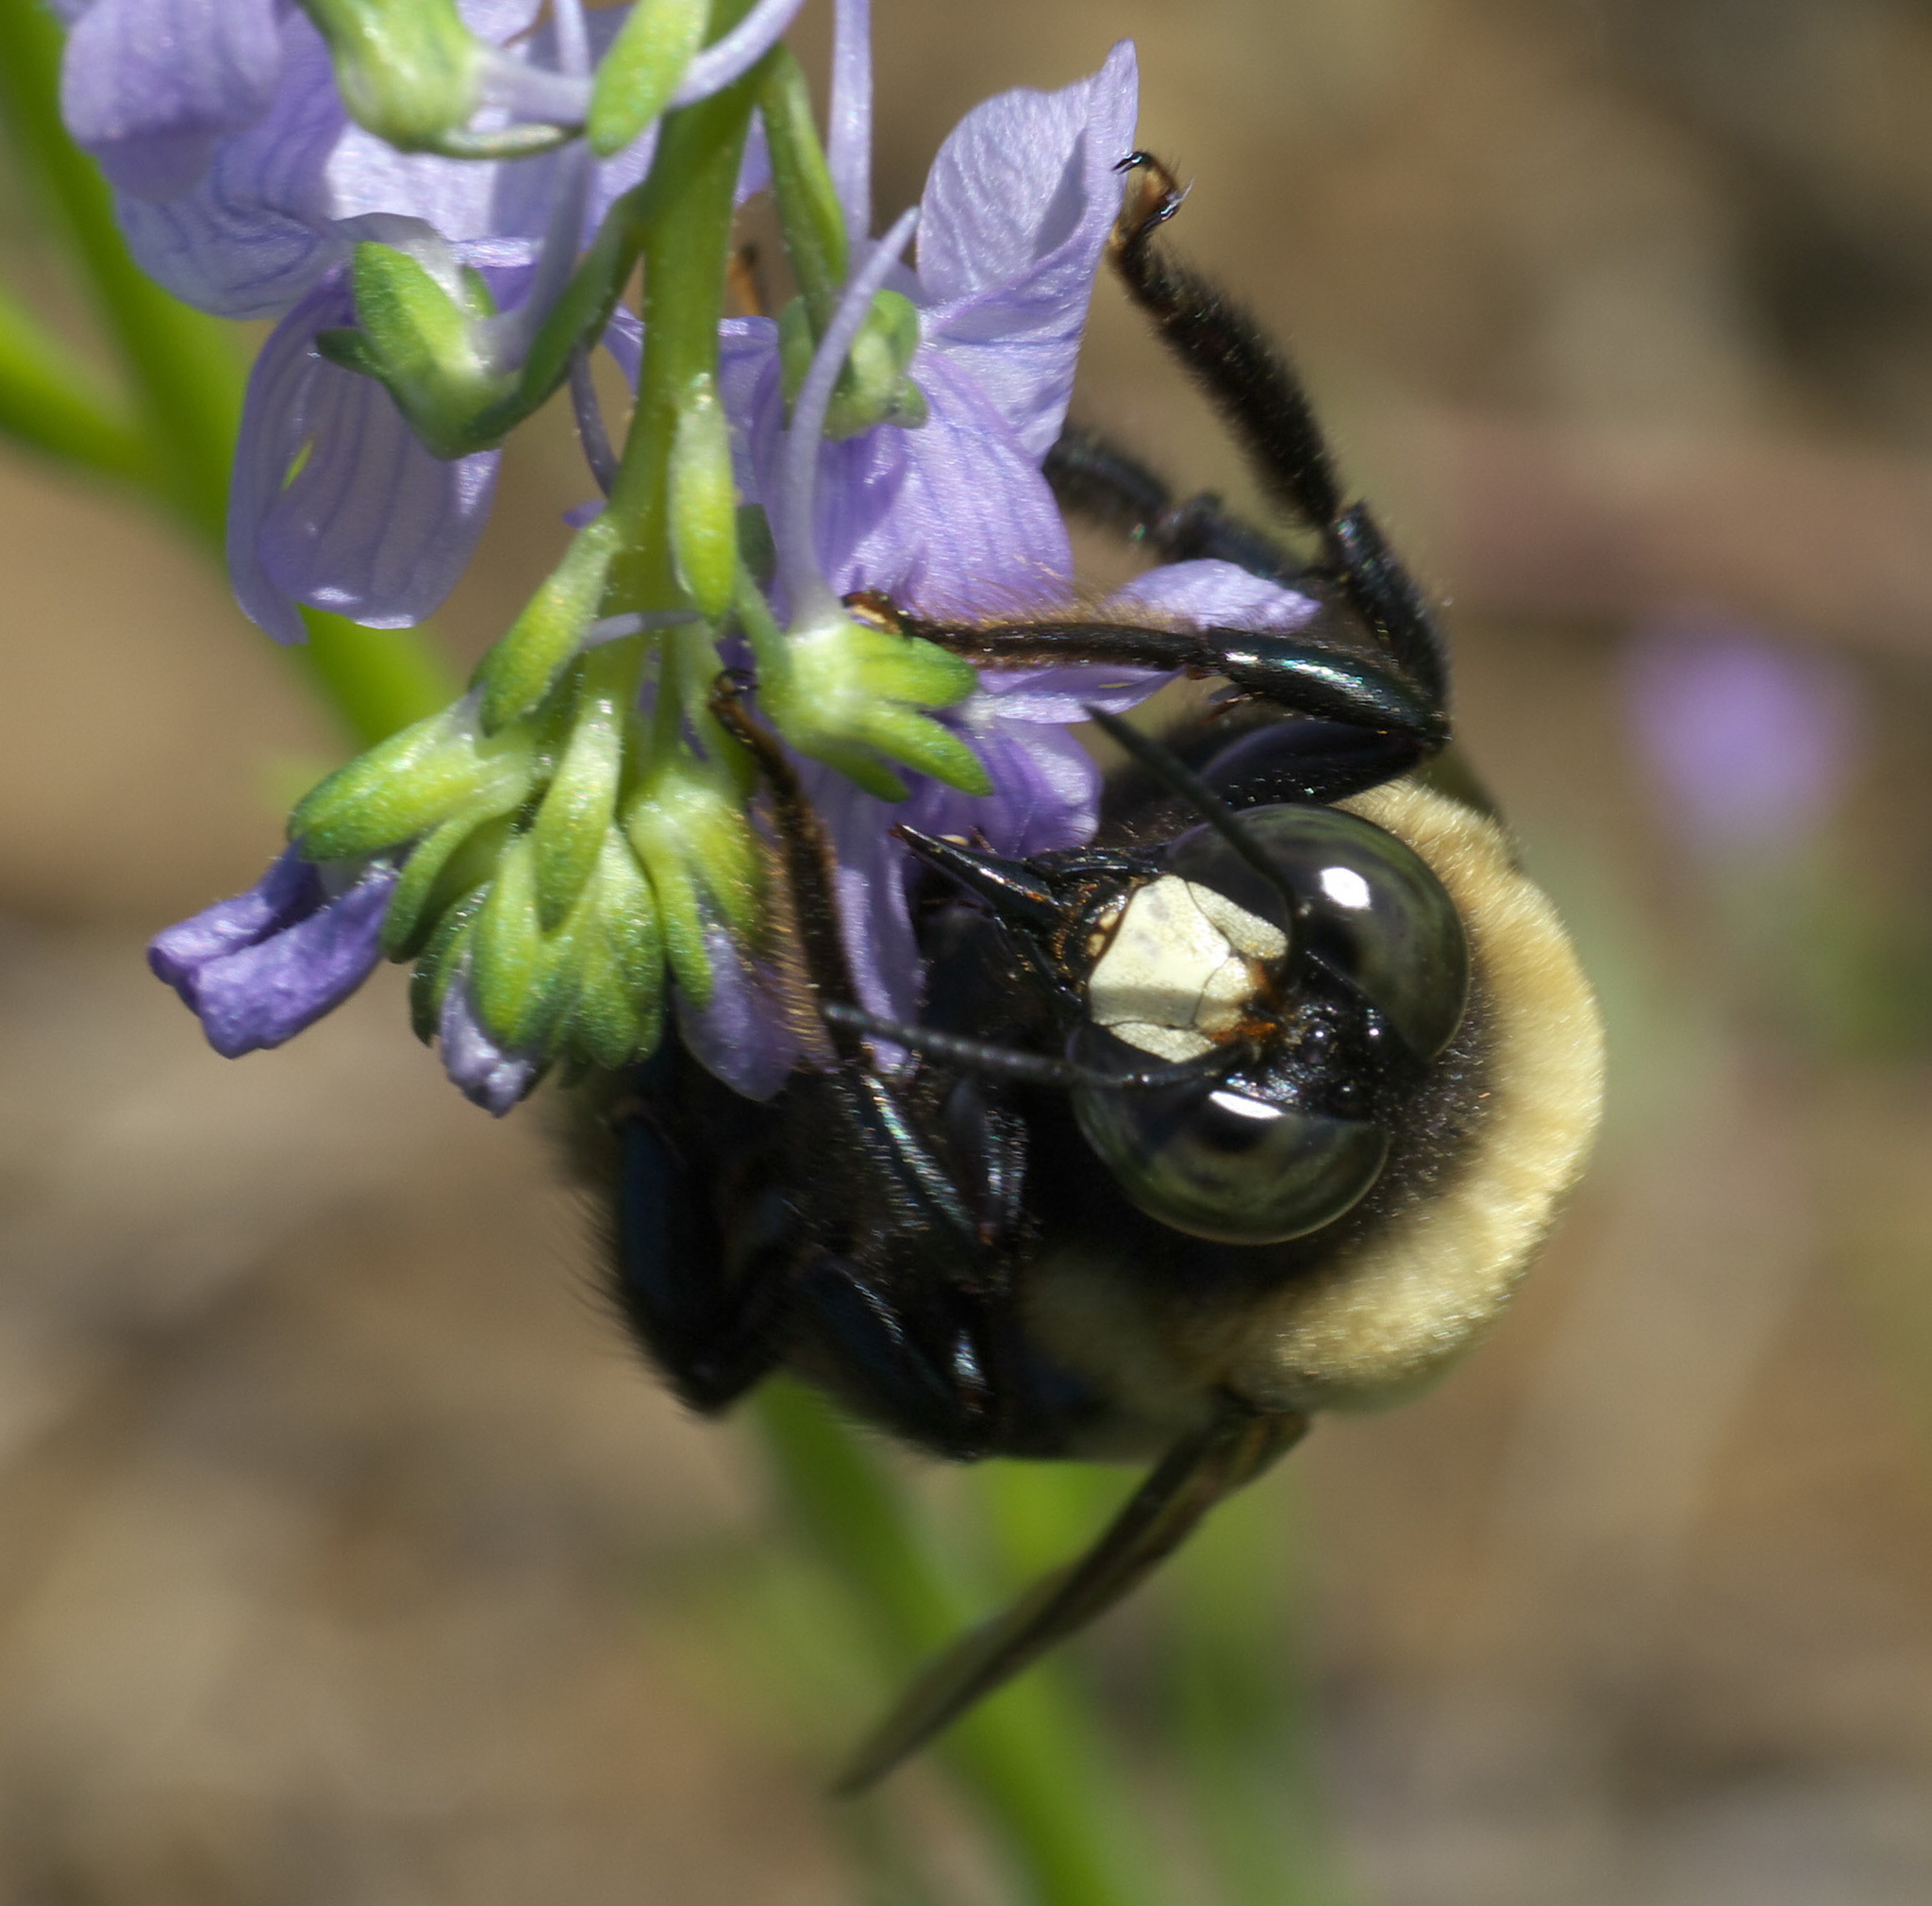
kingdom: Animalia
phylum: Arthropoda
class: Insecta
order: Hymenoptera
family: Apidae
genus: Xylocopa
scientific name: Xylocopa virginica
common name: Carpenter bee
